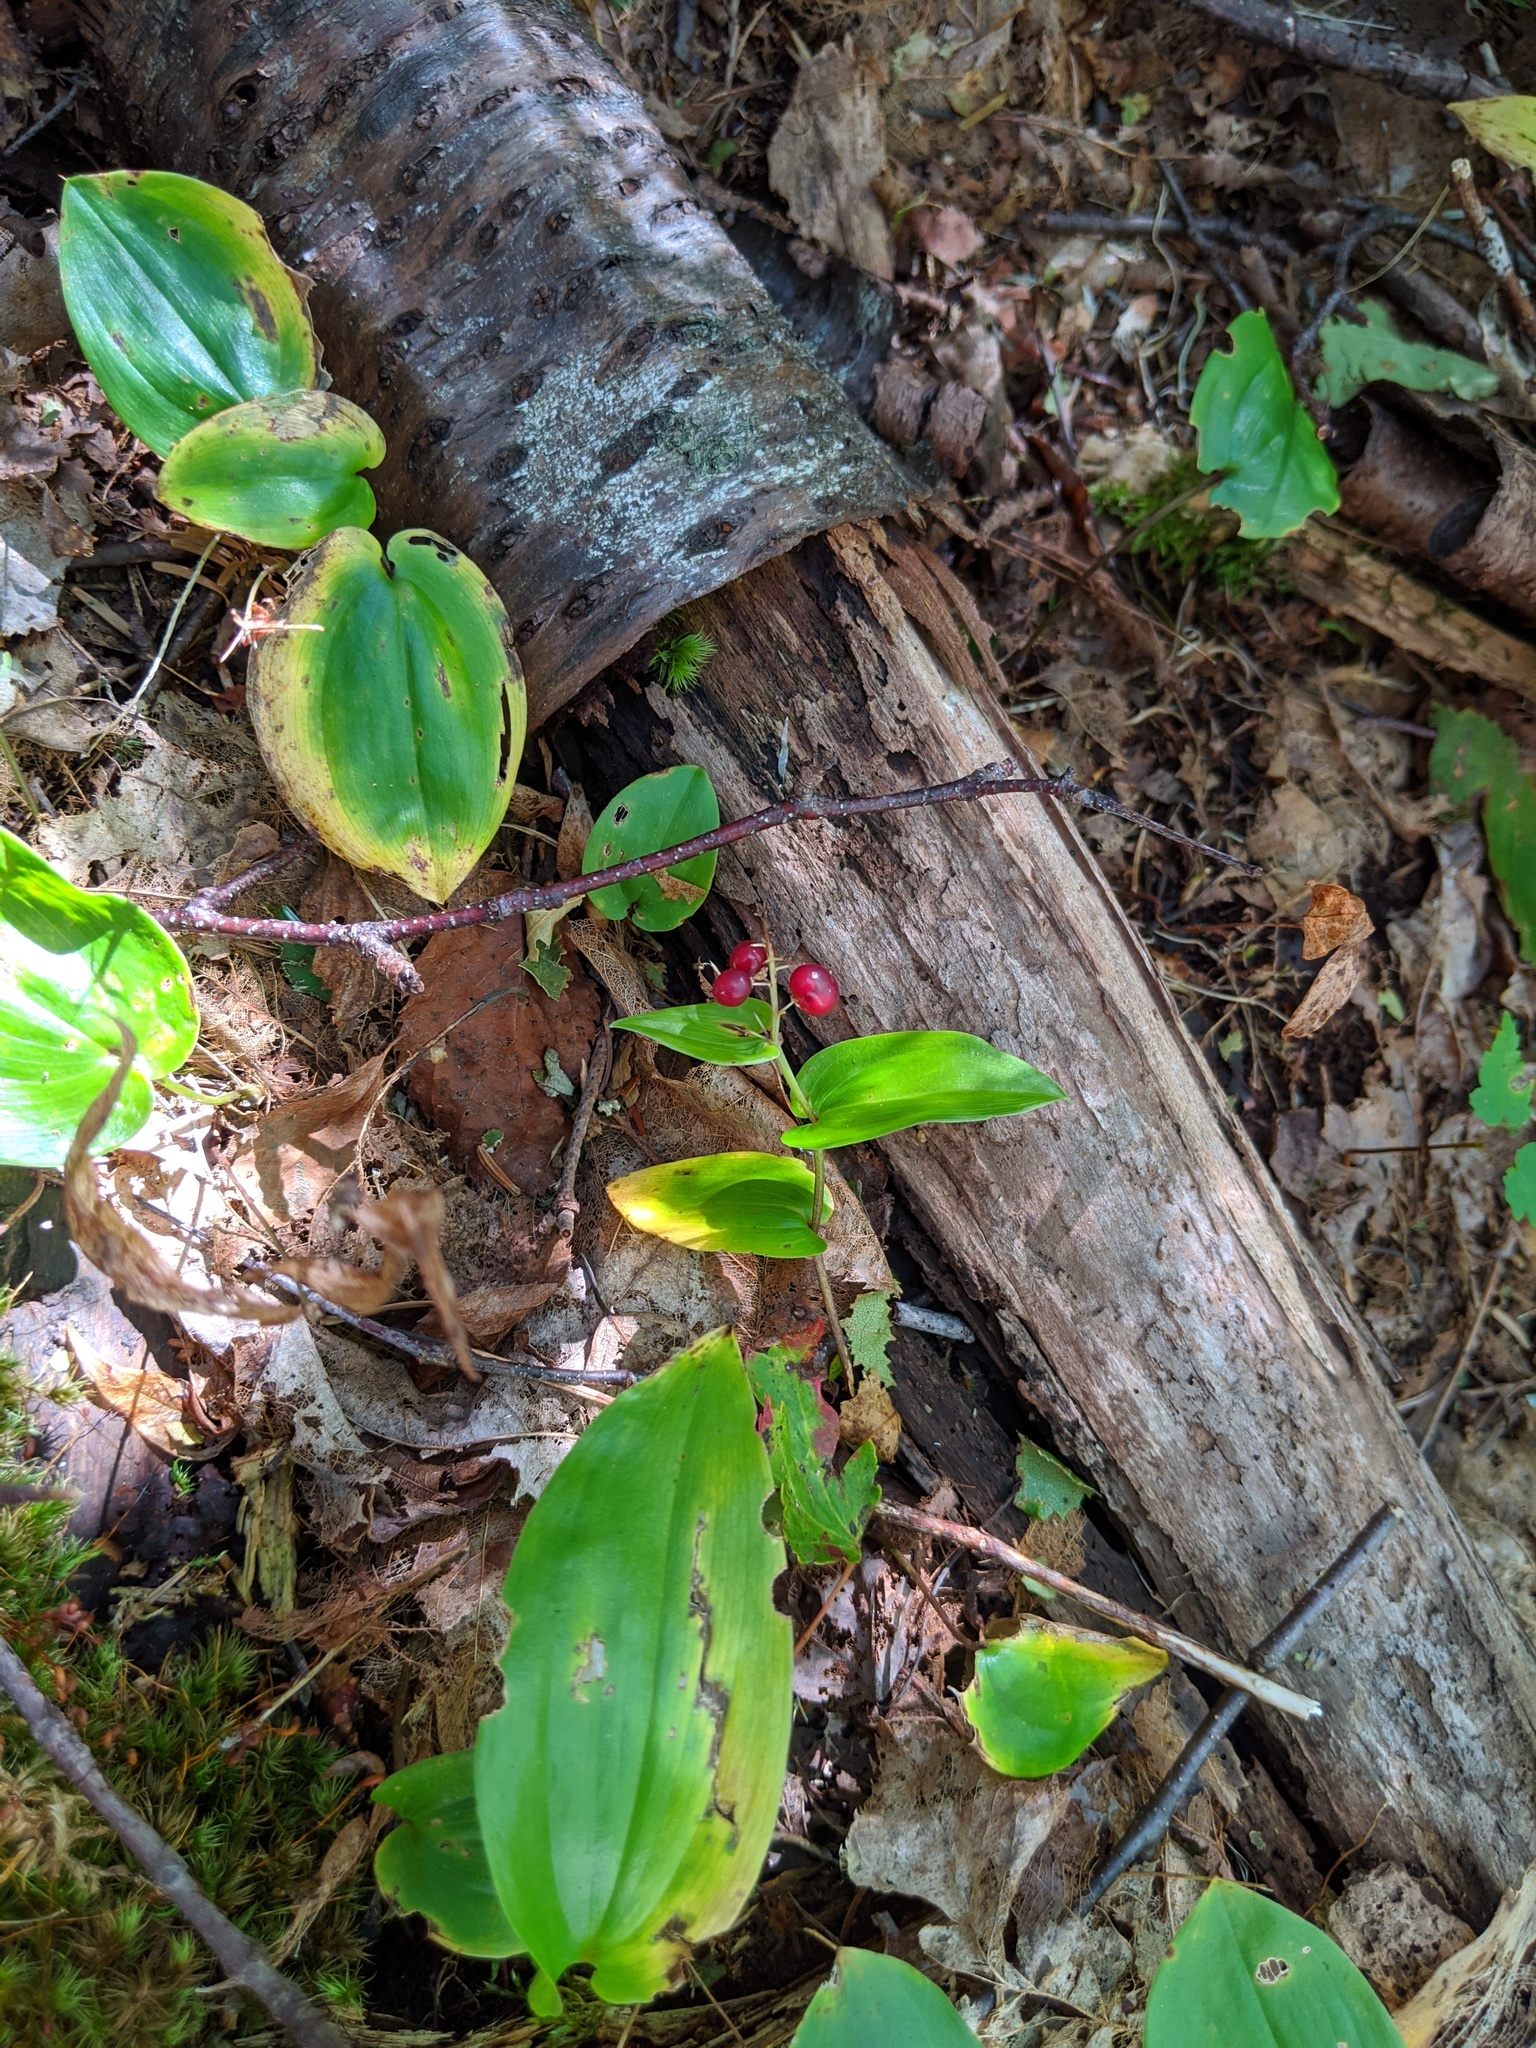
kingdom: Plantae
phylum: Tracheophyta
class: Liliopsida
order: Asparagales
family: Asparagaceae
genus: Maianthemum
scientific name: Maianthemum canadense
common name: False lily-of-the-valley
